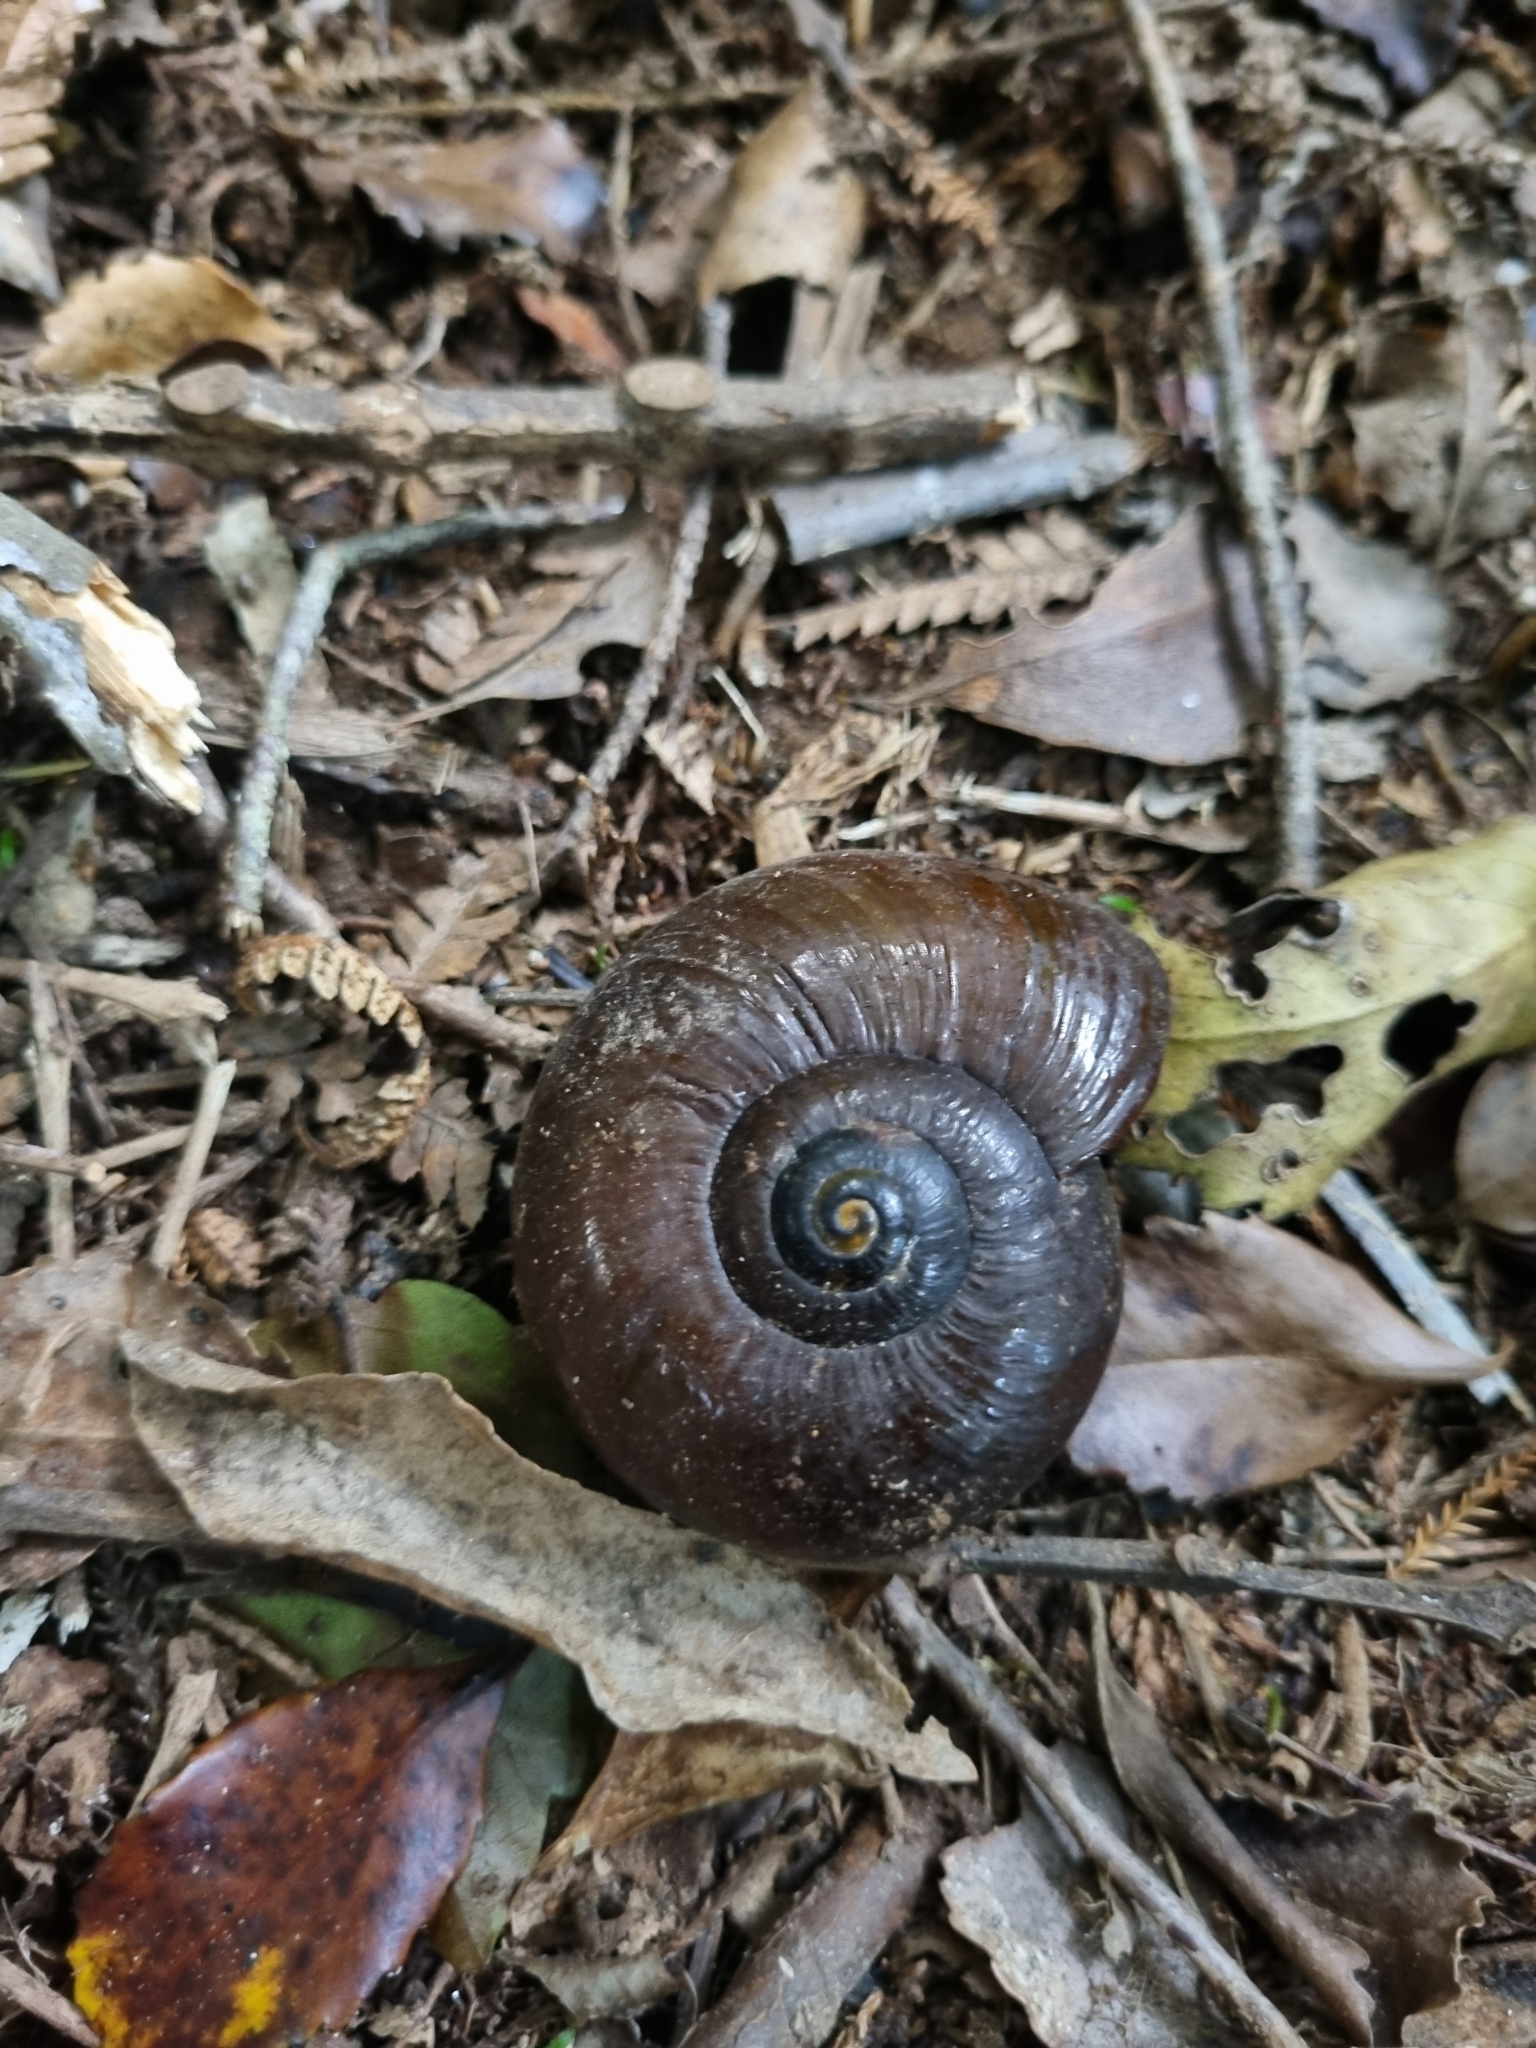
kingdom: Animalia
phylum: Mollusca
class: Gastropoda
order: Stylommatophora
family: Rhytididae
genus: Powelliphanta
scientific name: Powelliphanta superba
